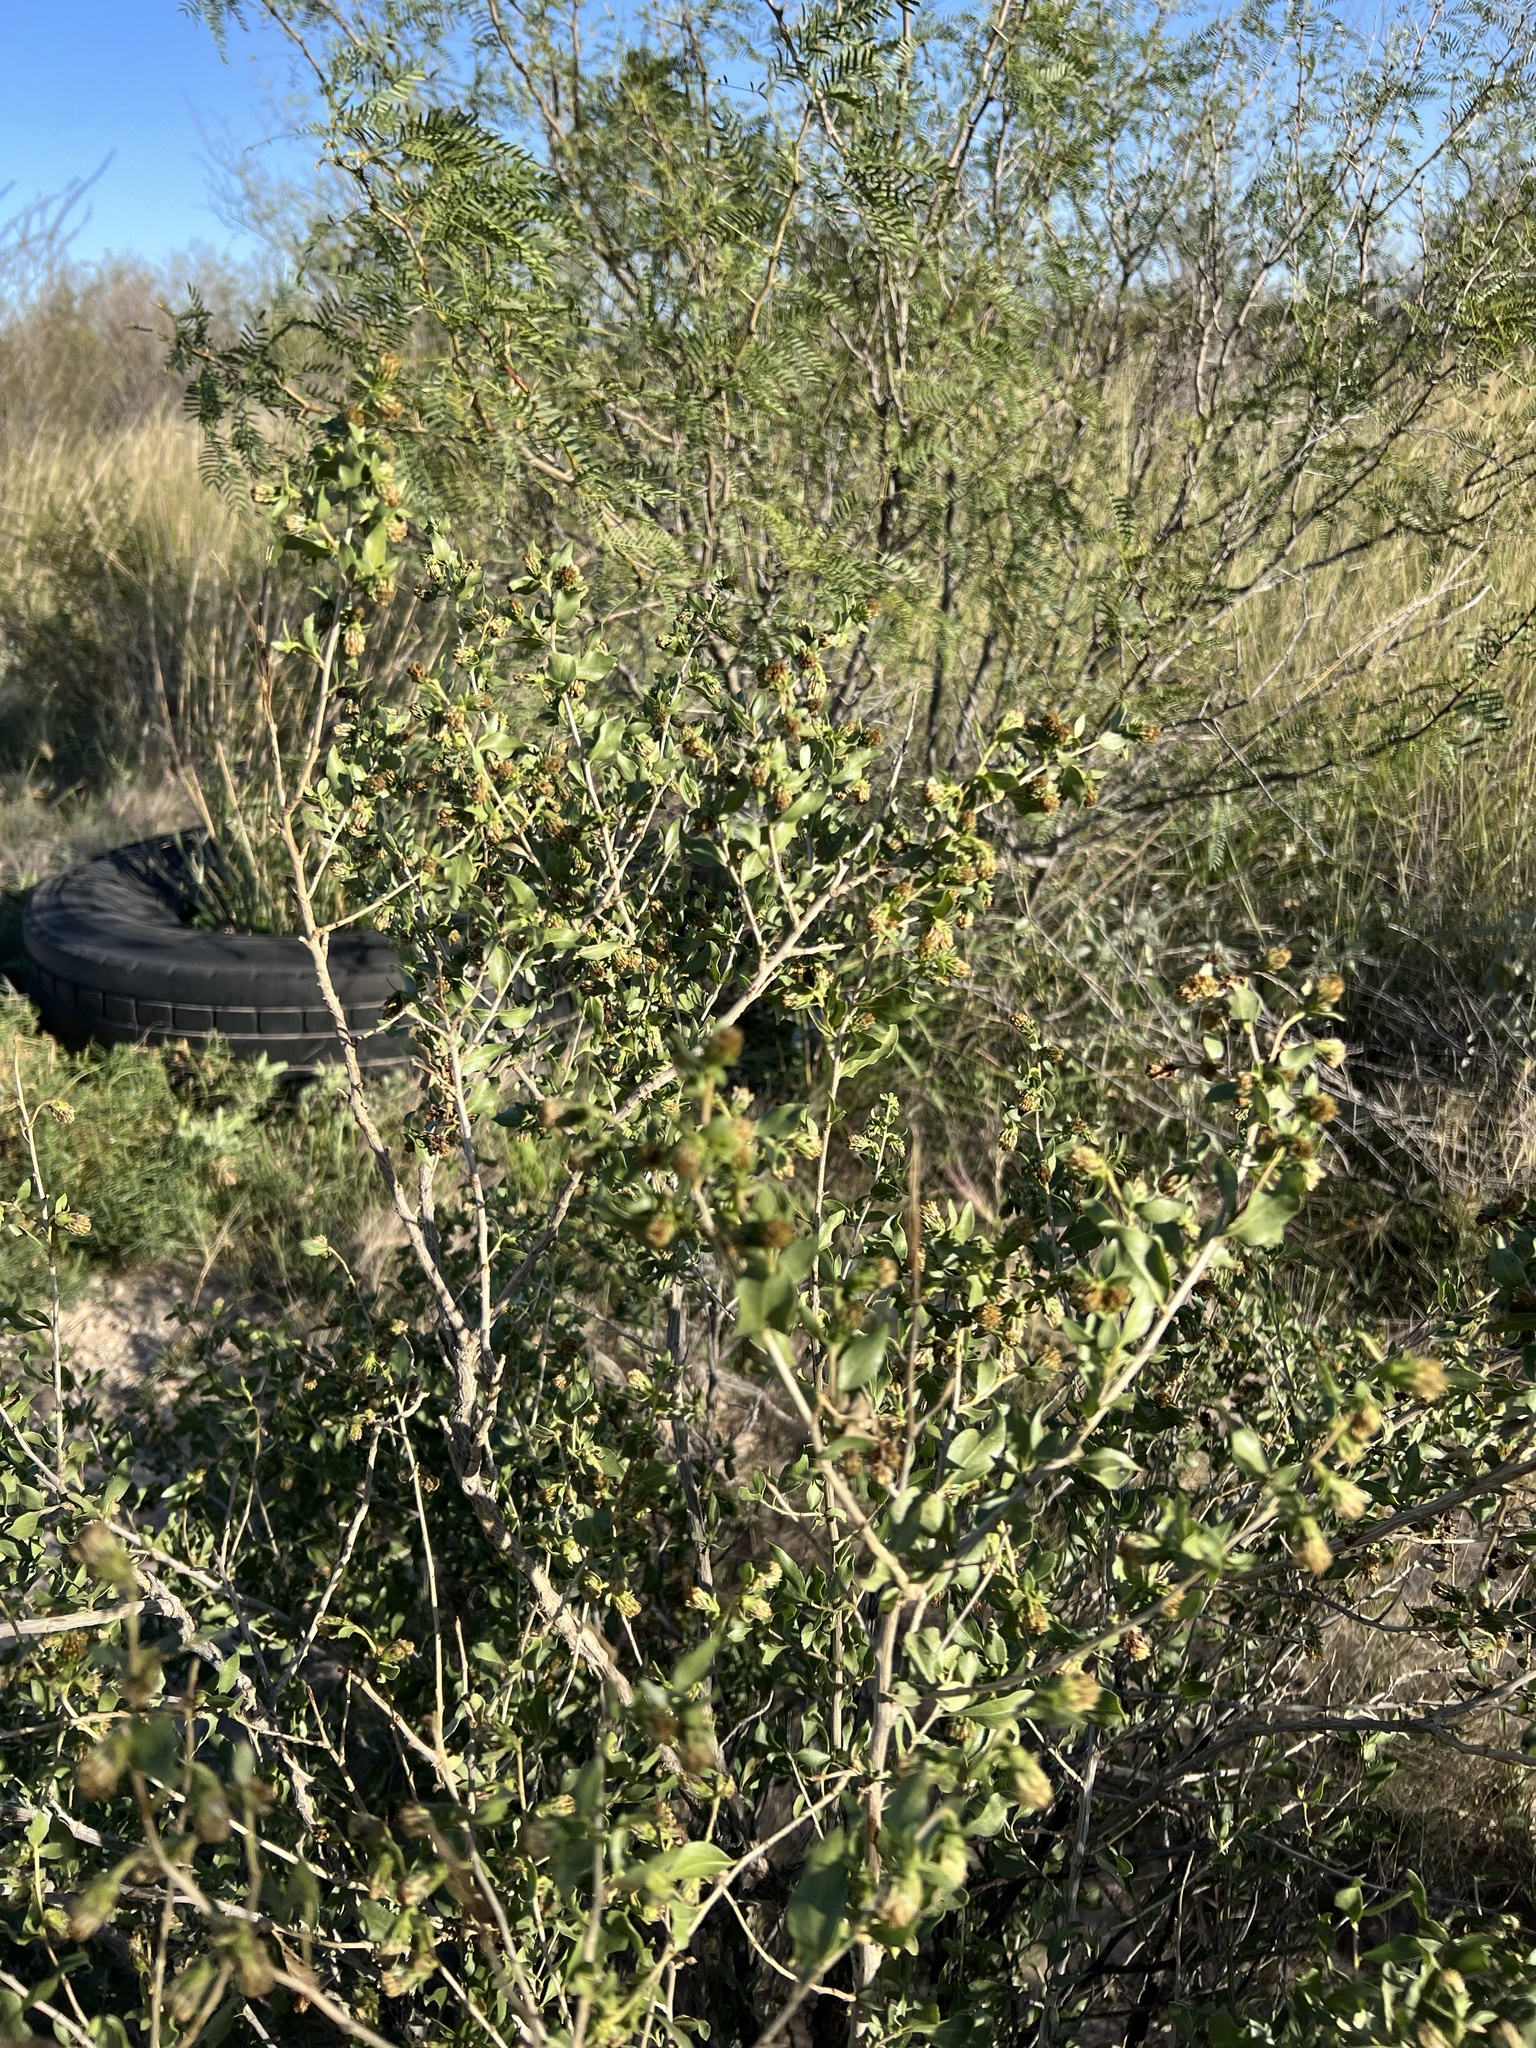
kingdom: Plantae
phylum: Tracheophyta
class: Magnoliopsida
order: Asterales
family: Asteraceae
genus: Flourensia
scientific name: Flourensia cernua
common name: Varnishbush
